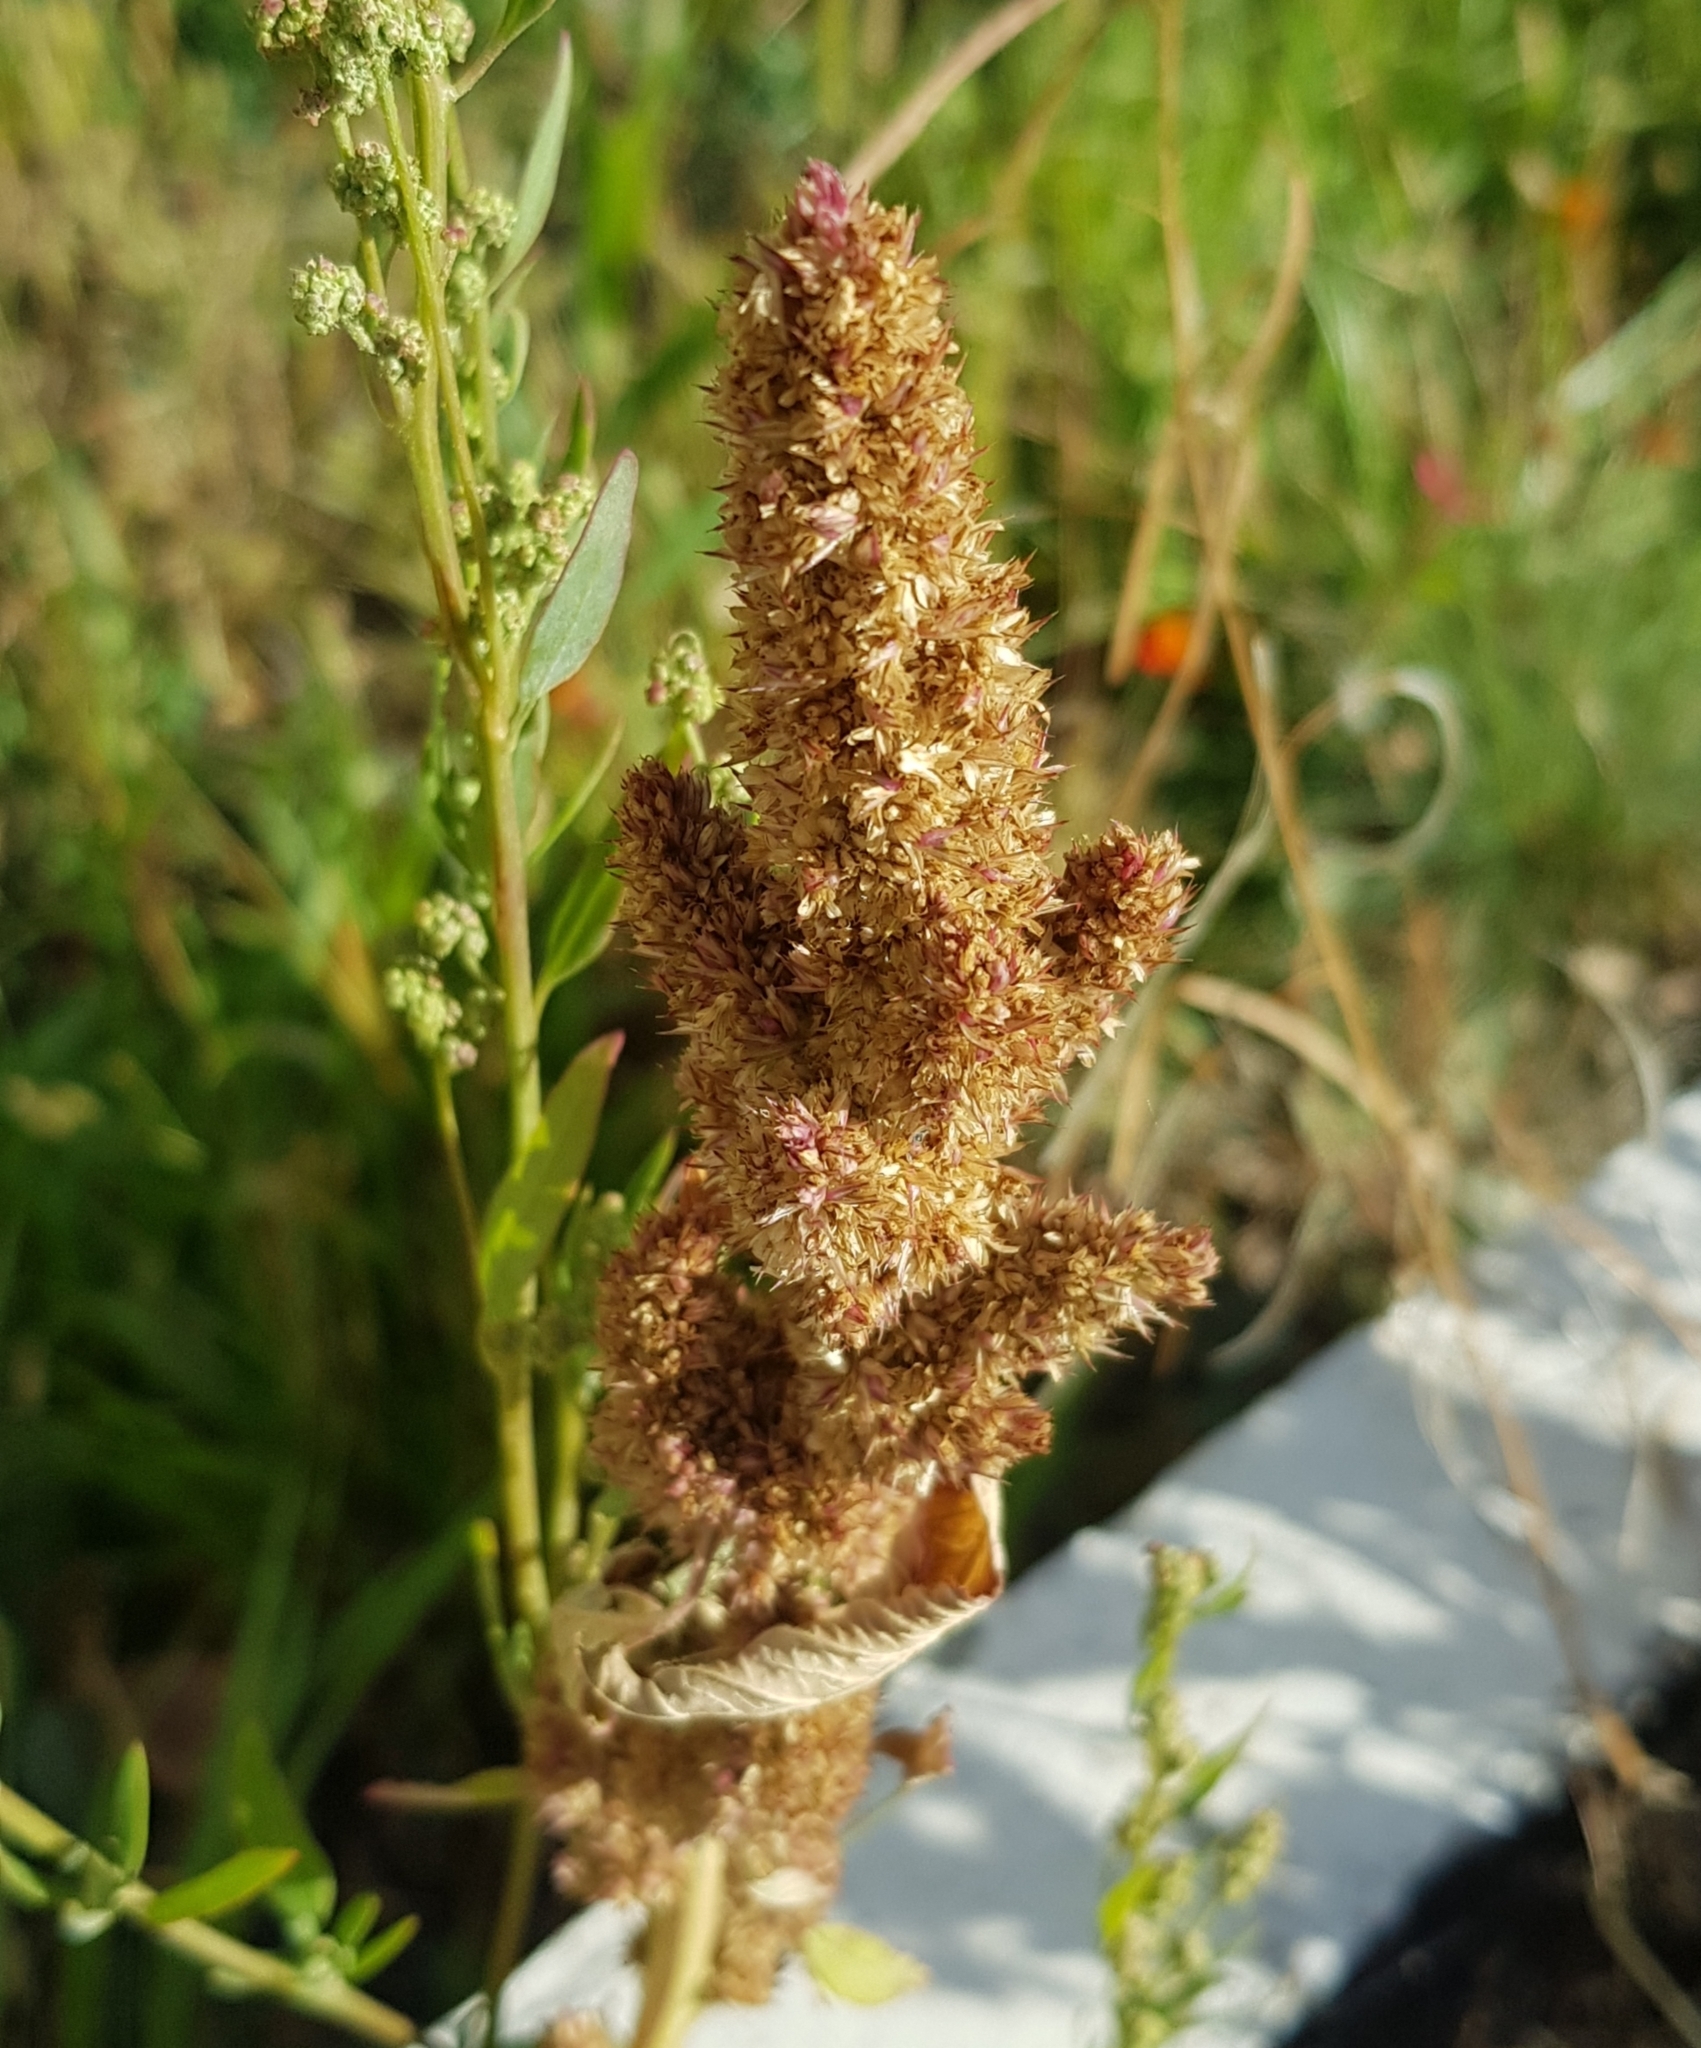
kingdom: Plantae
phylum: Tracheophyta
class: Magnoliopsida
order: Caryophyllales
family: Amaranthaceae
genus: Amaranthus
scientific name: Amaranthus hybridus
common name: Green amaranth
